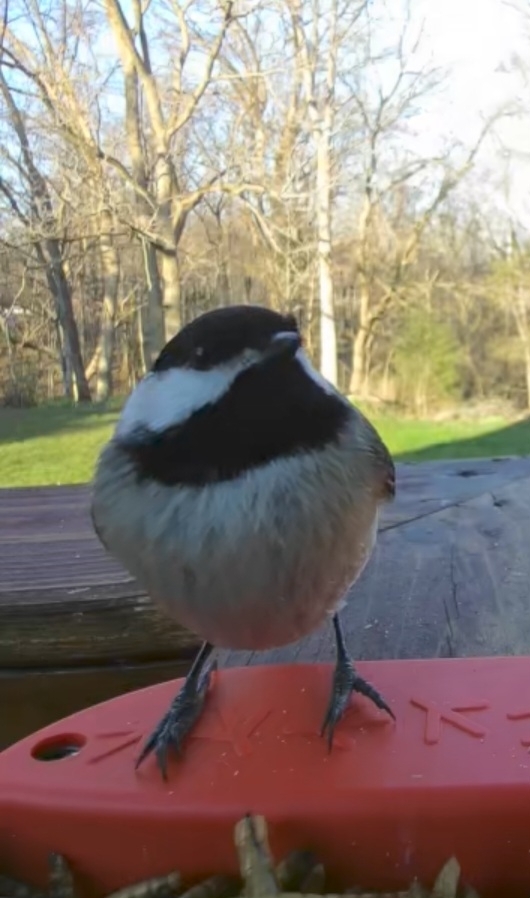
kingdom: Animalia
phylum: Chordata
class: Aves
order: Passeriformes
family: Paridae
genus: Poecile
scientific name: Poecile carolinensis
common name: Carolina chickadee
